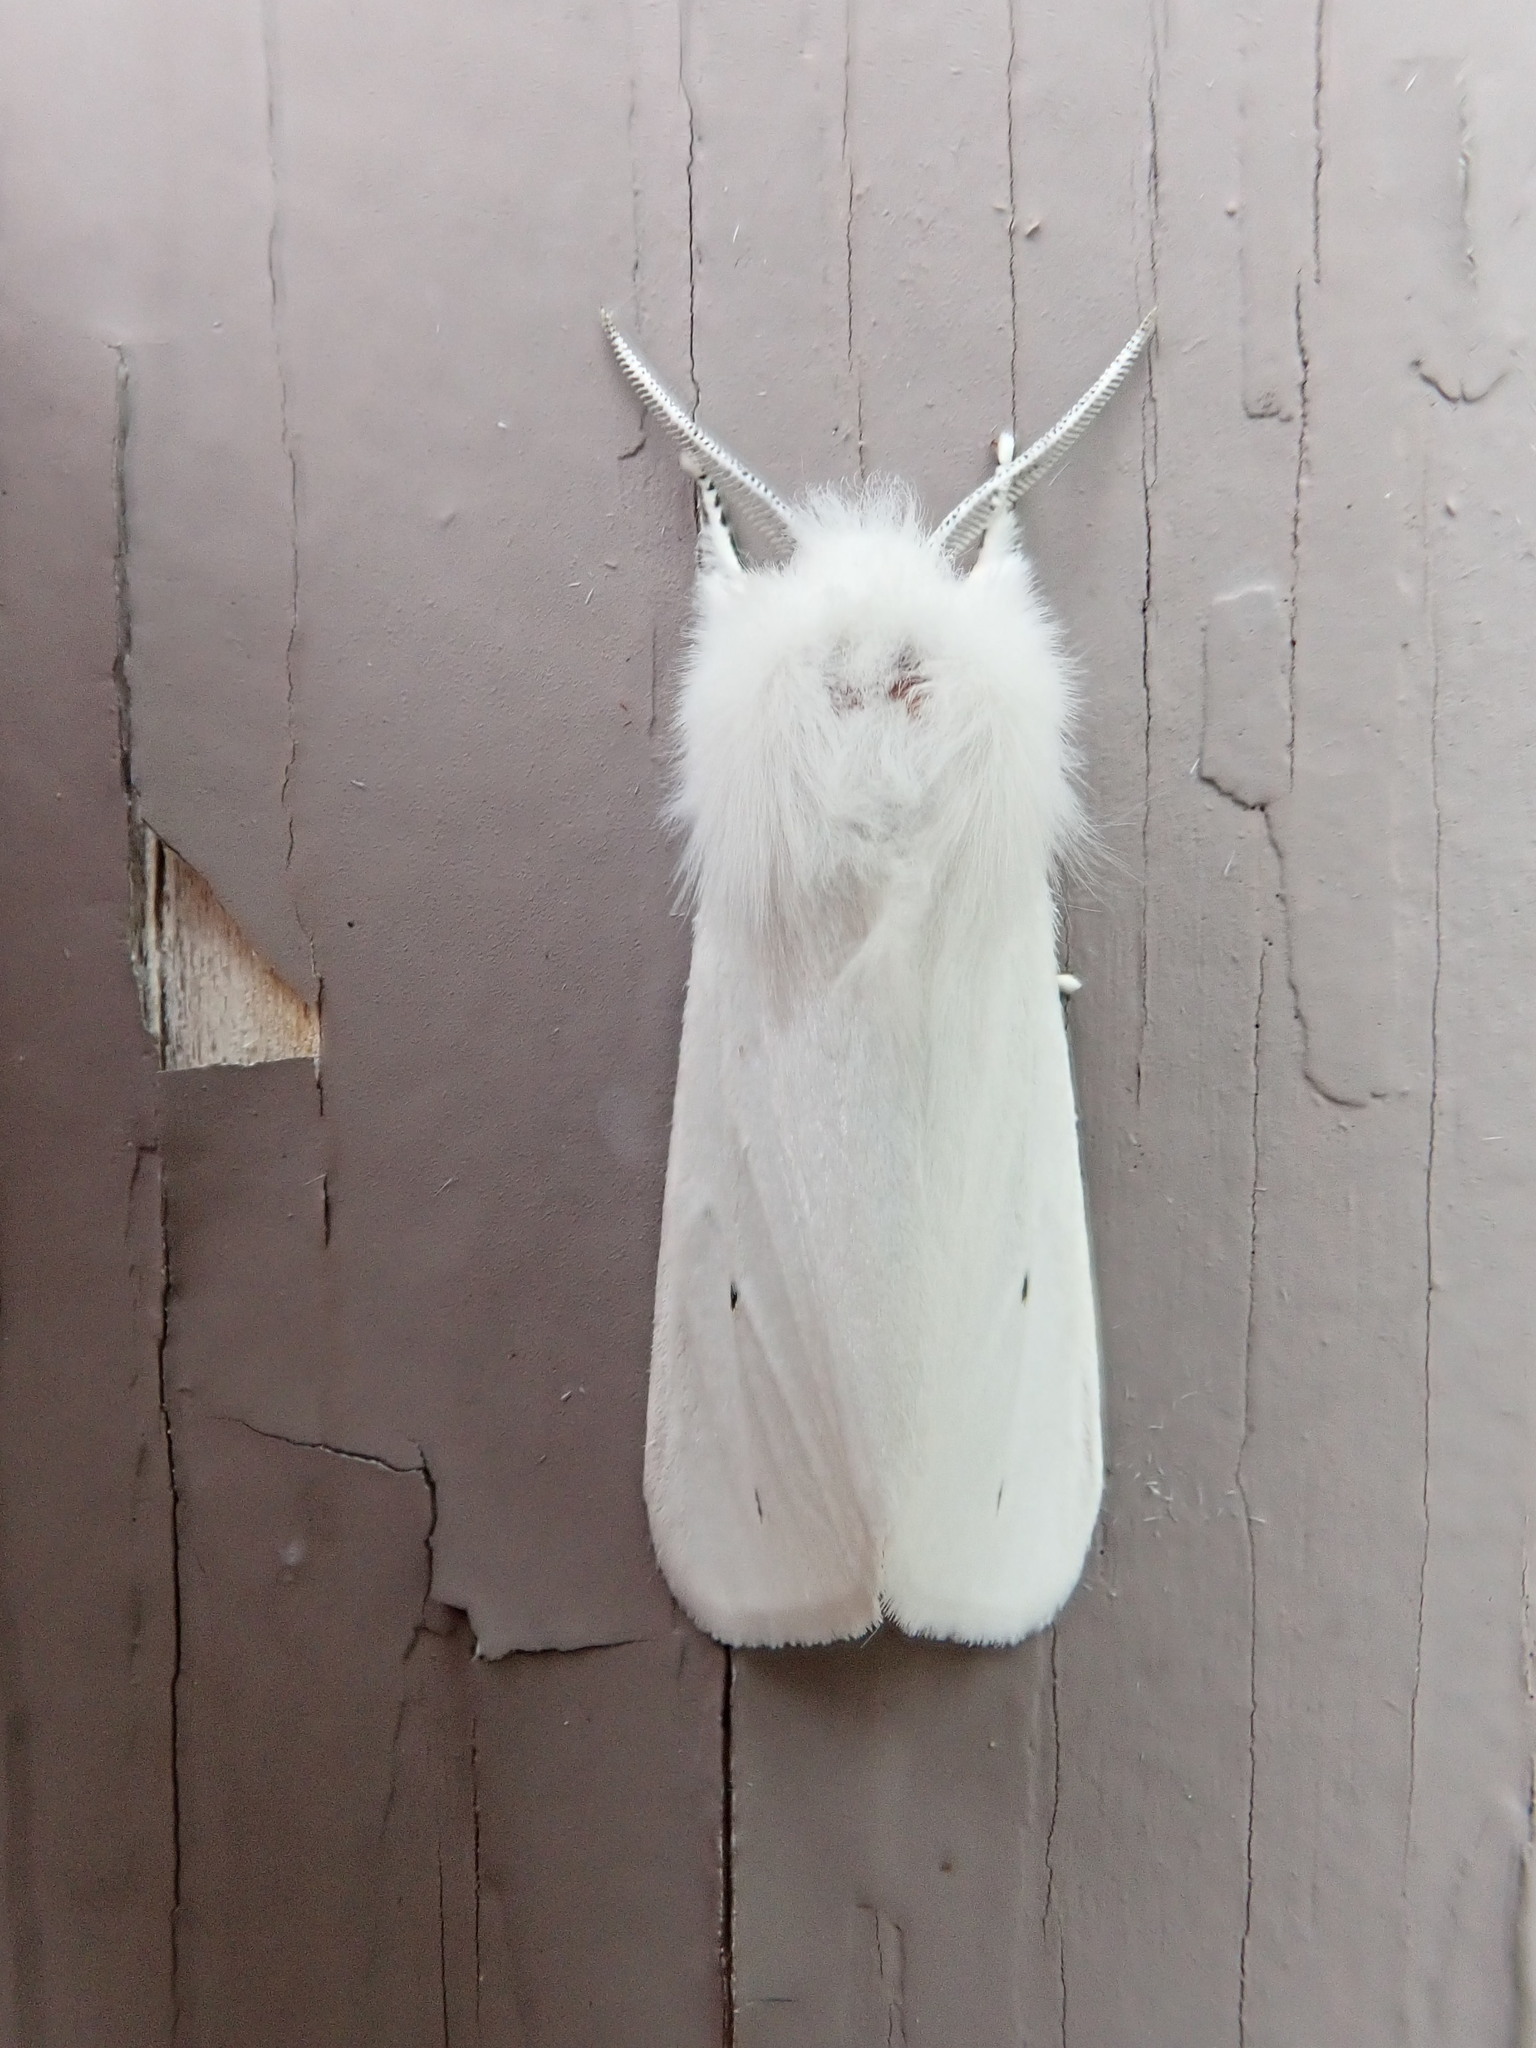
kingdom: Animalia
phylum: Arthropoda
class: Insecta
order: Lepidoptera
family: Erebidae
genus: Spilosoma
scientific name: Spilosoma virginica
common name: Virginia tiger moth
